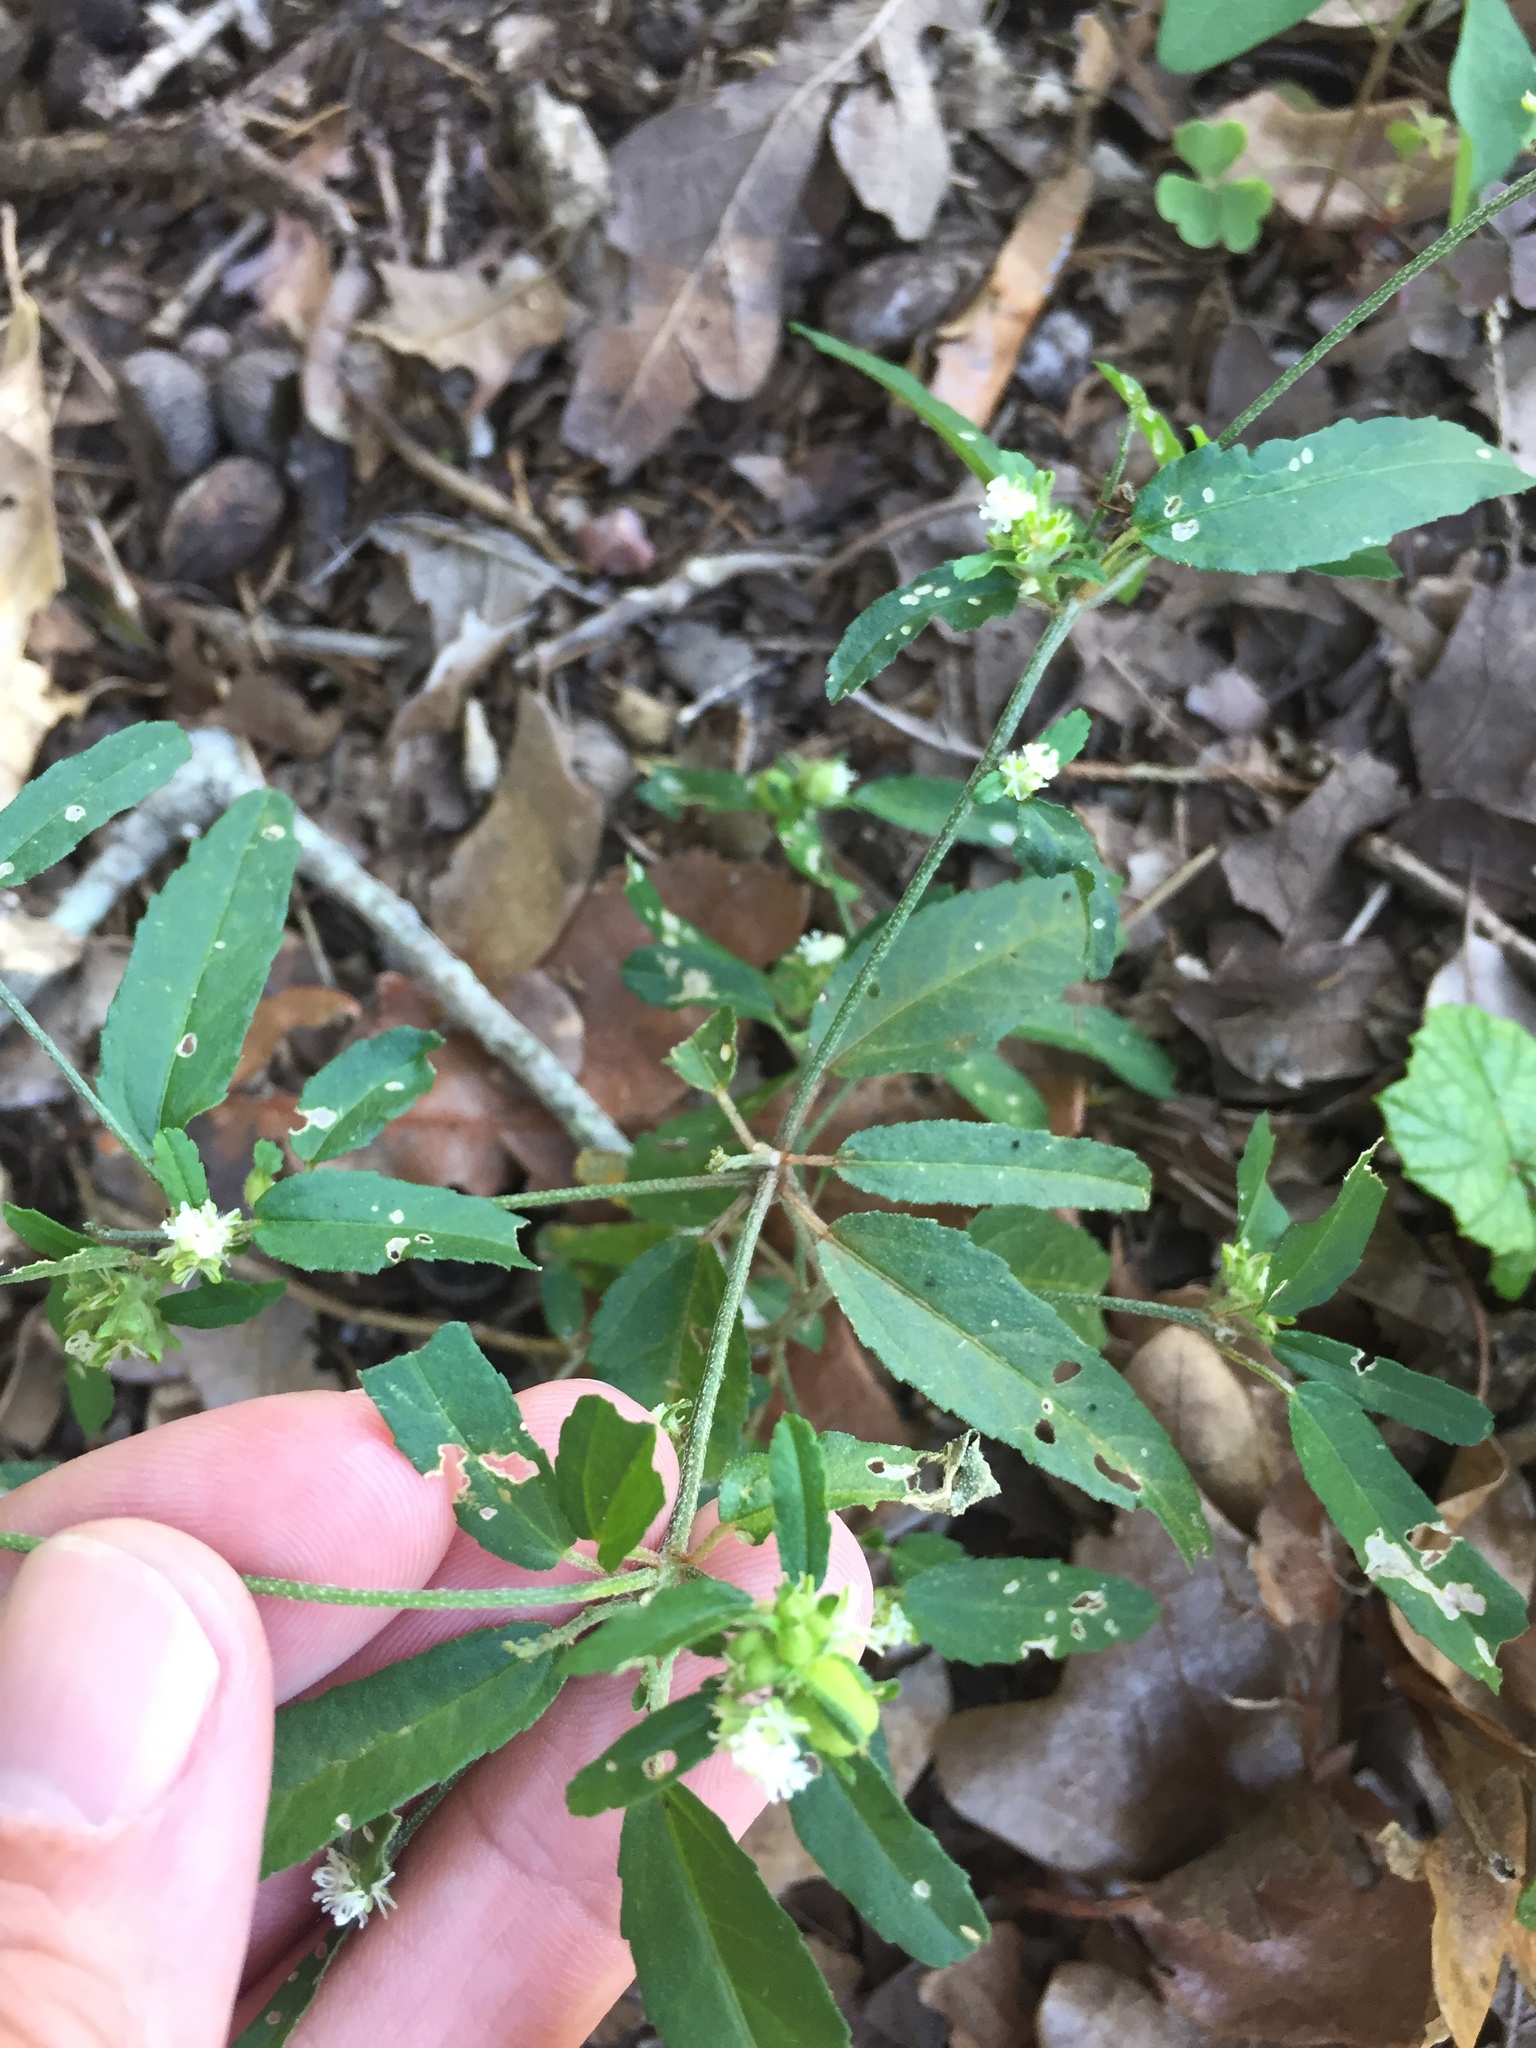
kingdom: Plantae
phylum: Tracheophyta
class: Magnoliopsida
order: Malpighiales
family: Euphorbiaceae
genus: Croton
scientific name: Croton glandulosus
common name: Tropic croton
